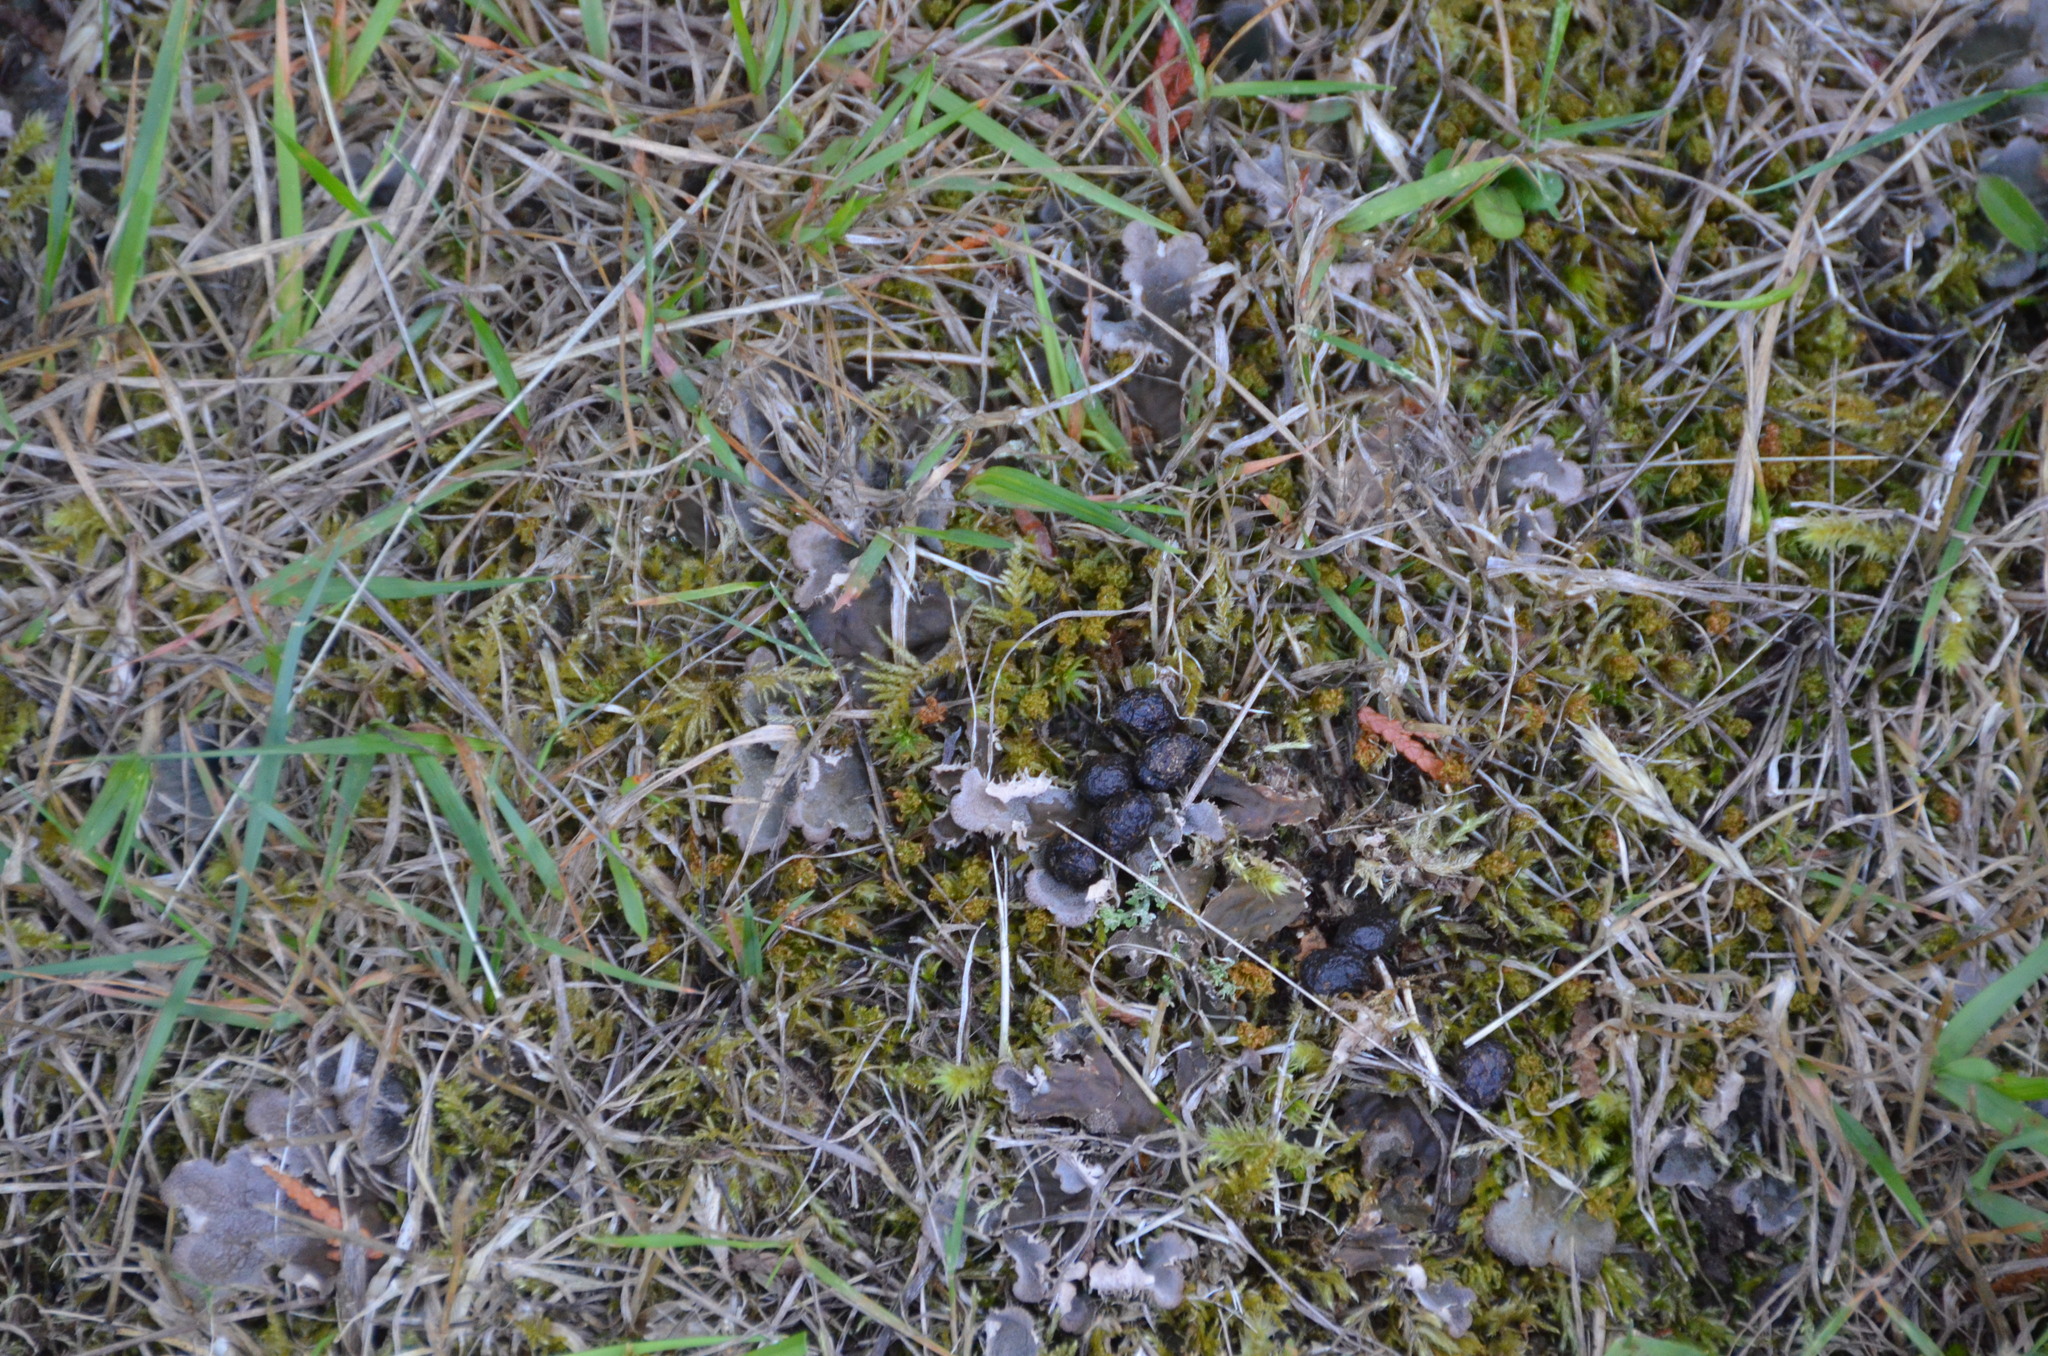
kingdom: Animalia
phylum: Chordata
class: Mammalia
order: Lagomorpha
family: Leporidae
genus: Sylvilagus
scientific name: Sylvilagus floridanus
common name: Eastern cottontail
